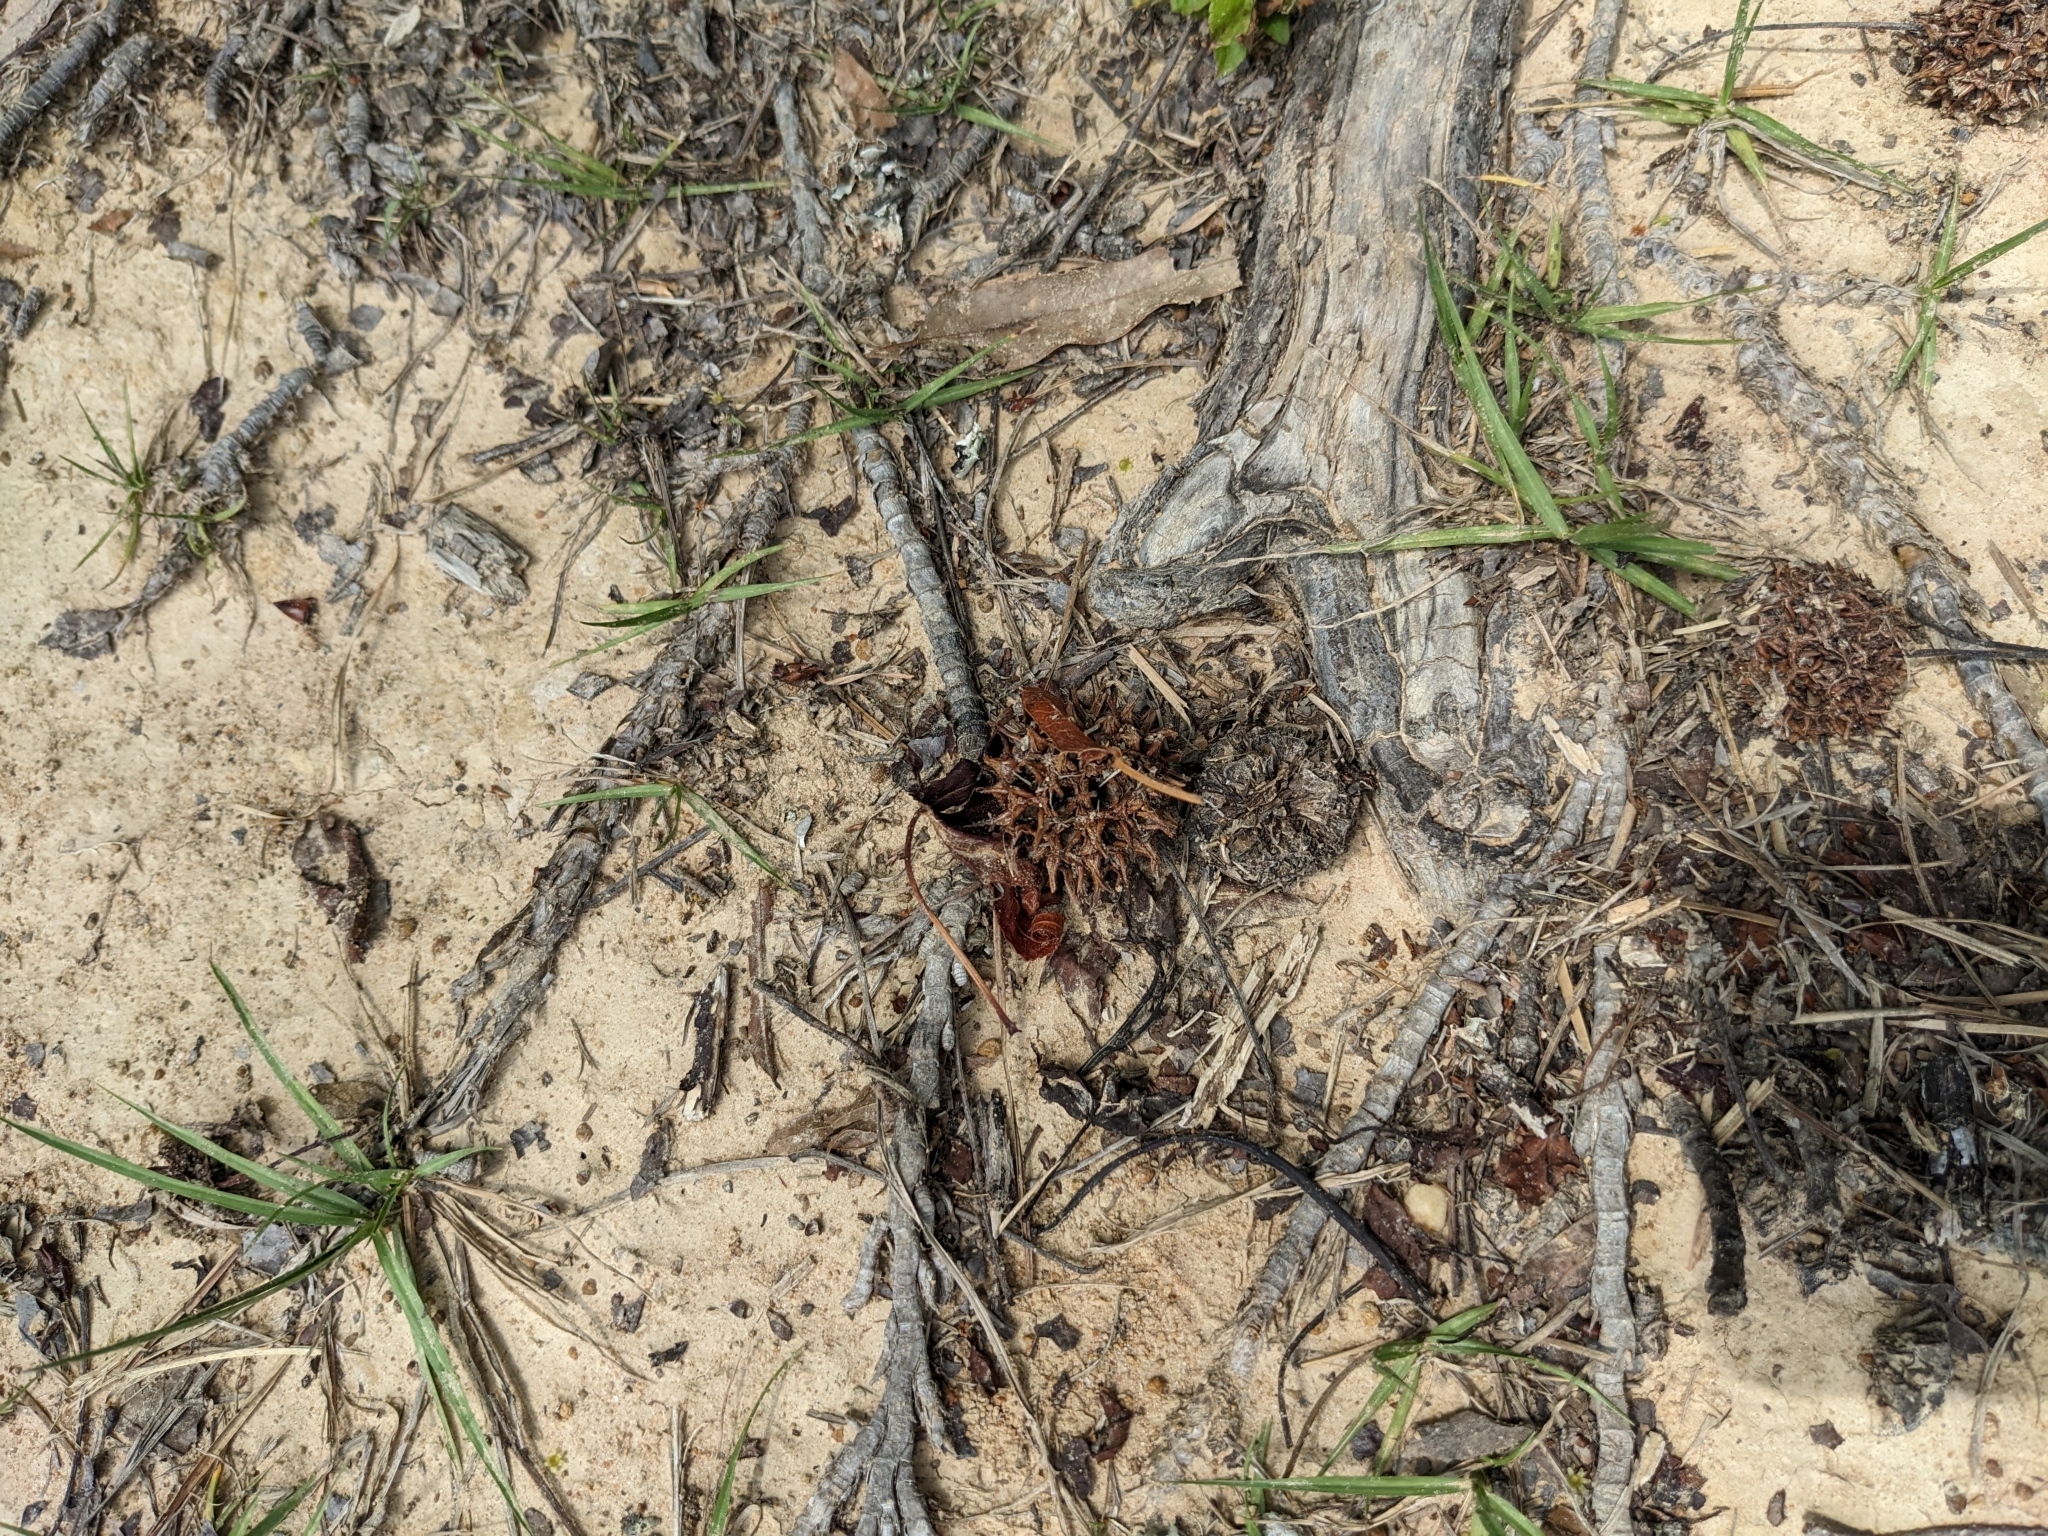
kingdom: Plantae
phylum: Tracheophyta
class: Magnoliopsida
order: Saxifragales
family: Altingiaceae
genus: Liquidambar
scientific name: Liquidambar styraciflua
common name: Sweet gum
